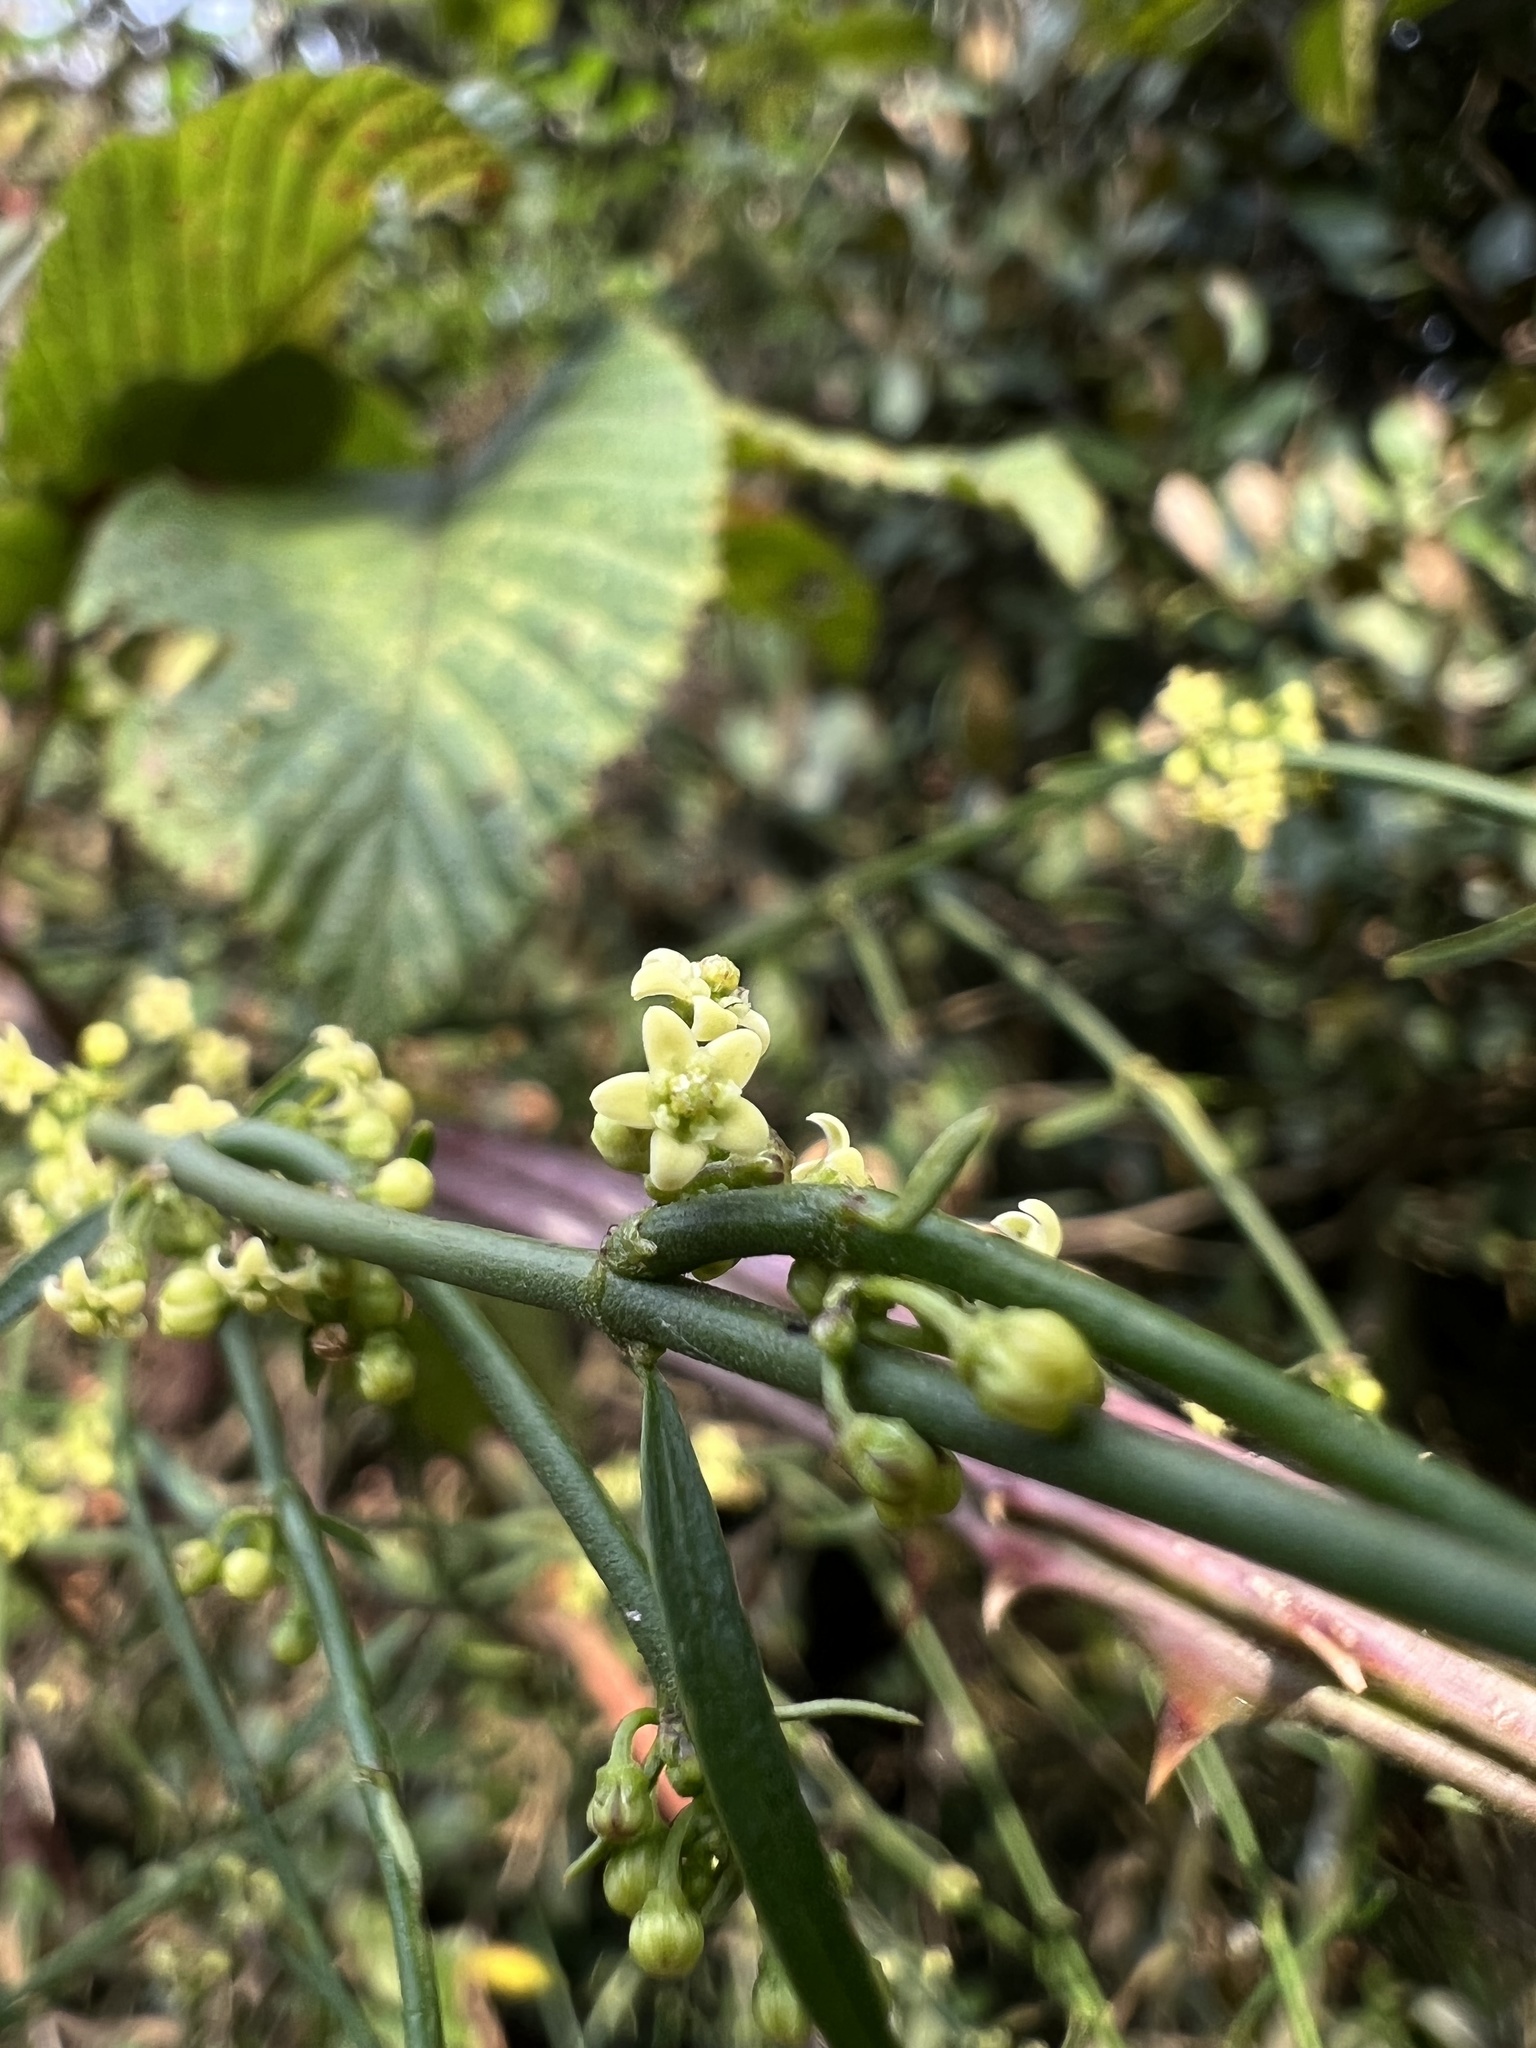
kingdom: Plantae
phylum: Tracheophyta
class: Magnoliopsida
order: Gentianales
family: Apocynaceae
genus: Orthosia
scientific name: Orthosia stenophylla
